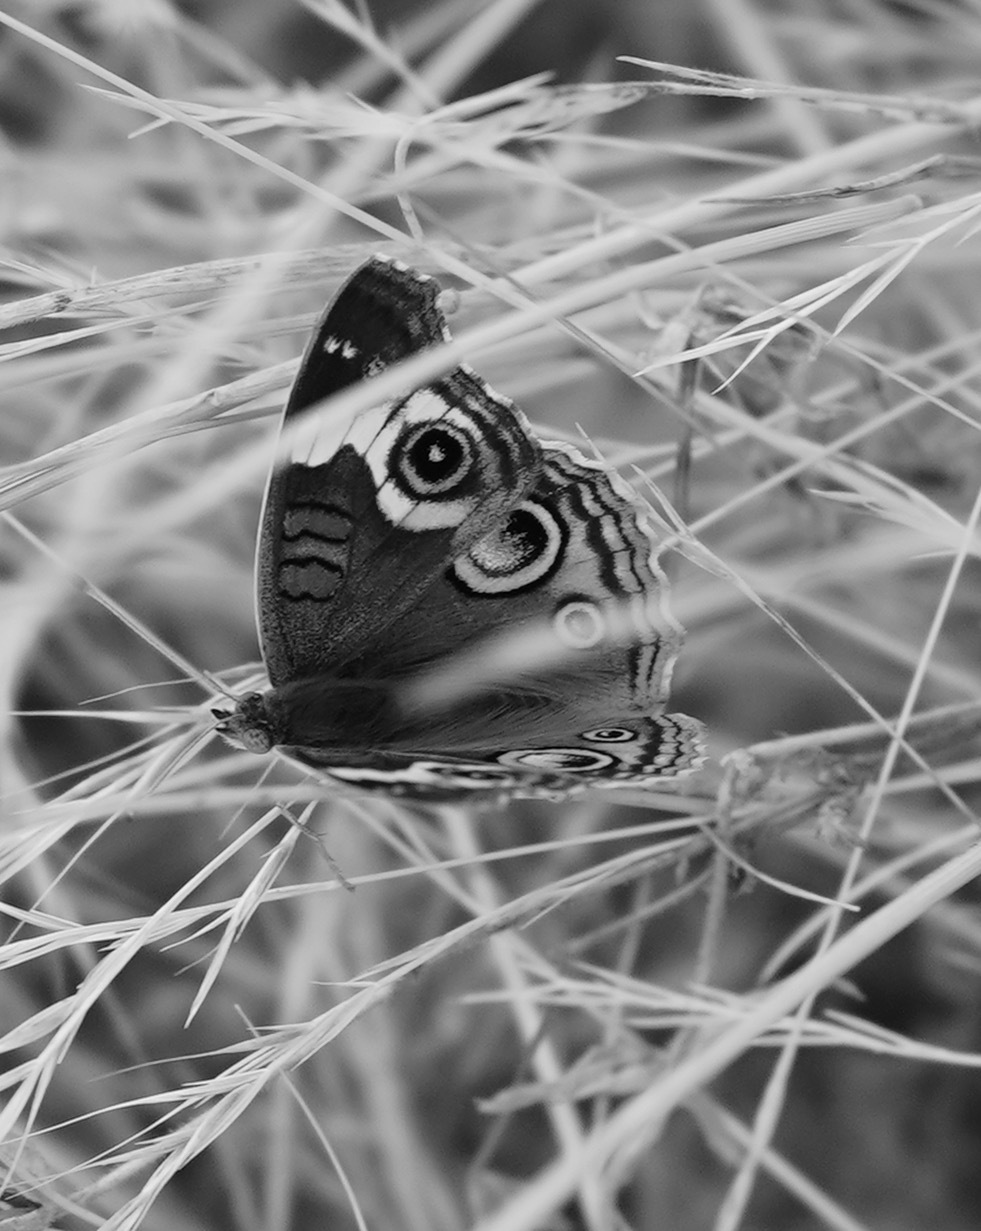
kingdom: Animalia
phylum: Arthropoda
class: Insecta
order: Lepidoptera
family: Nymphalidae
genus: Junonia
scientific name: Junonia grisea
